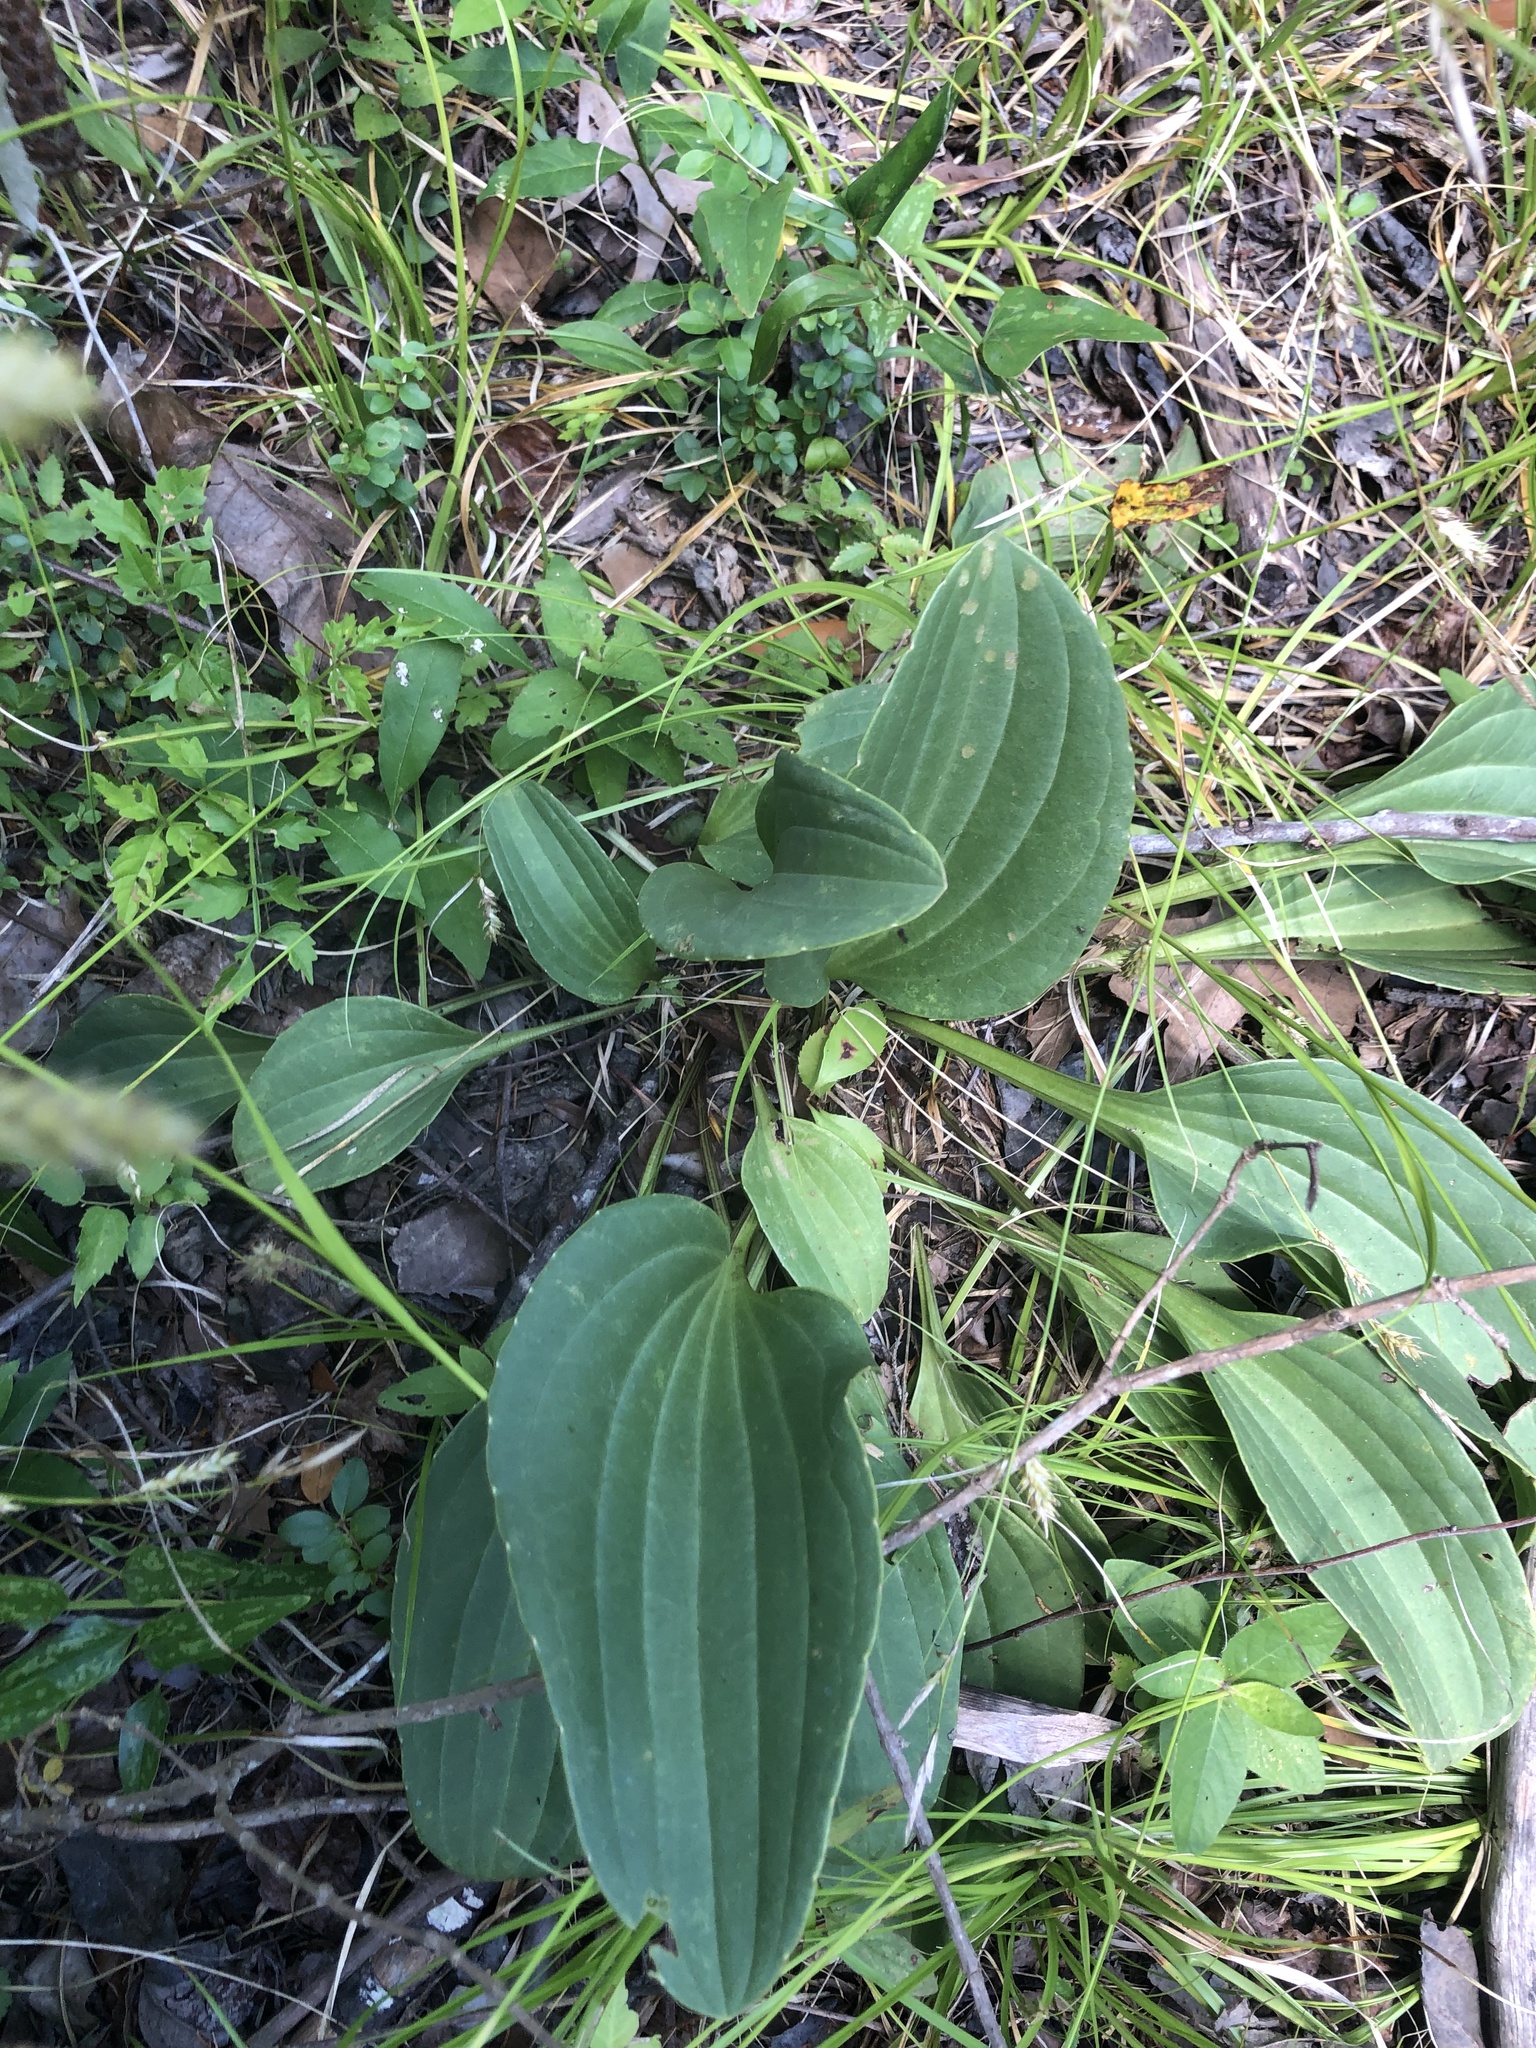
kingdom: Plantae
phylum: Tracheophyta
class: Magnoliopsida
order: Asterales
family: Asteraceae
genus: Arnoglossum
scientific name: Arnoglossum plantagineum
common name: Groove-stemmed indian-plantain
